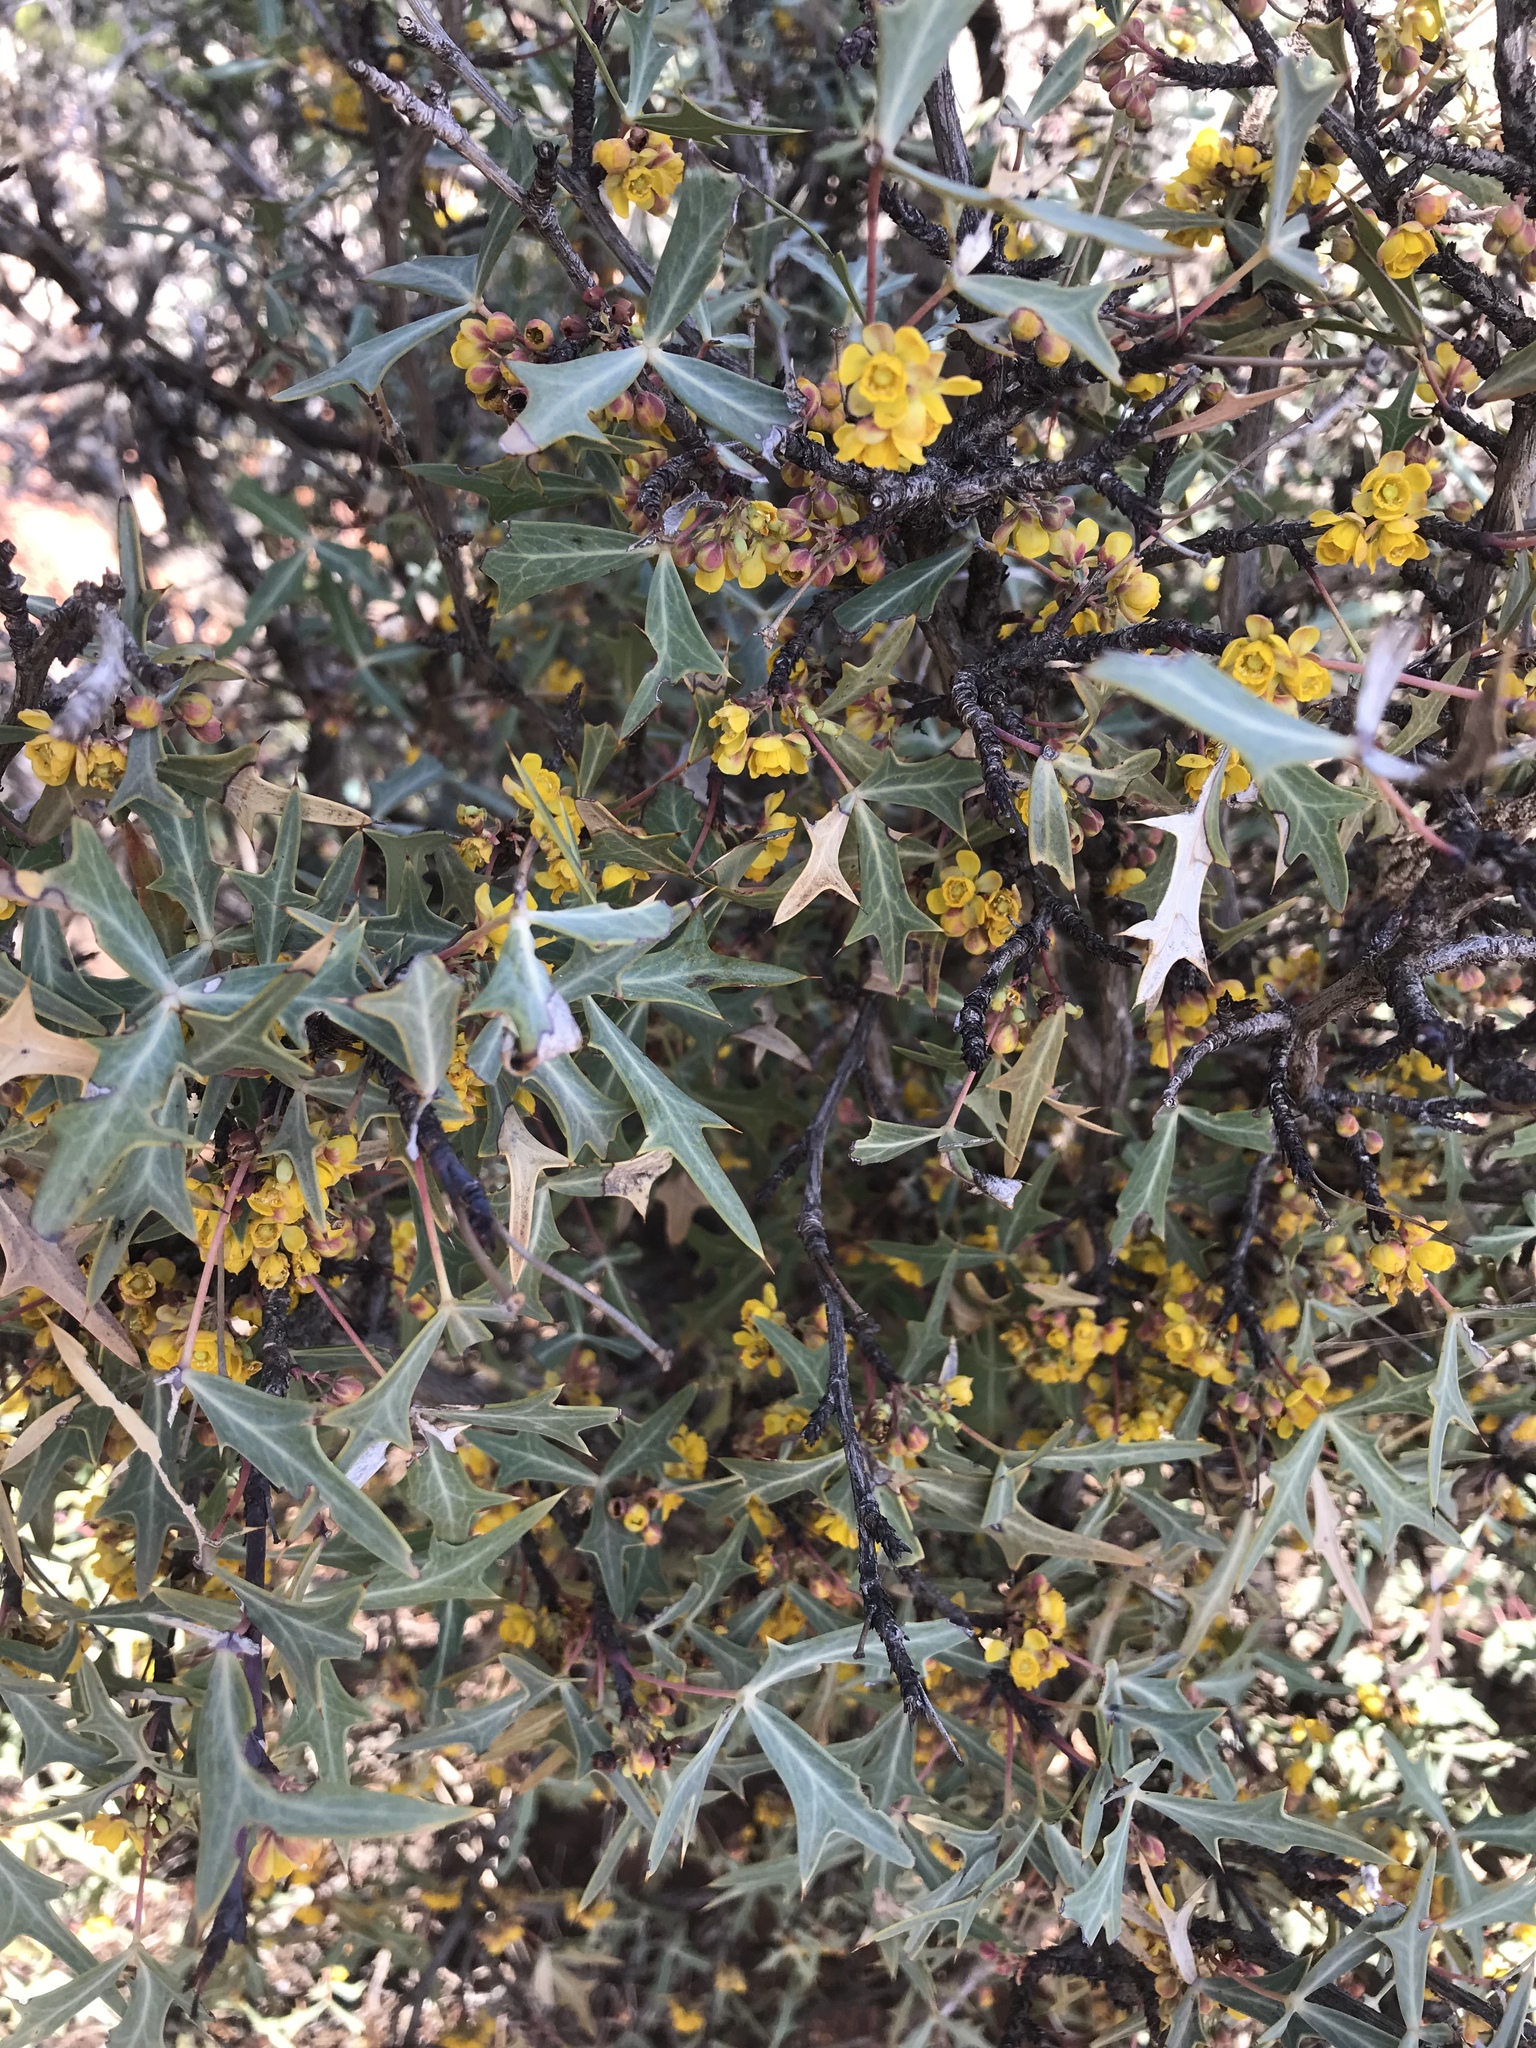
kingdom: Plantae
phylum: Tracheophyta
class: Magnoliopsida
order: Ranunculales
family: Berberidaceae
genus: Alloberberis
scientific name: Alloberberis trifoliolata
